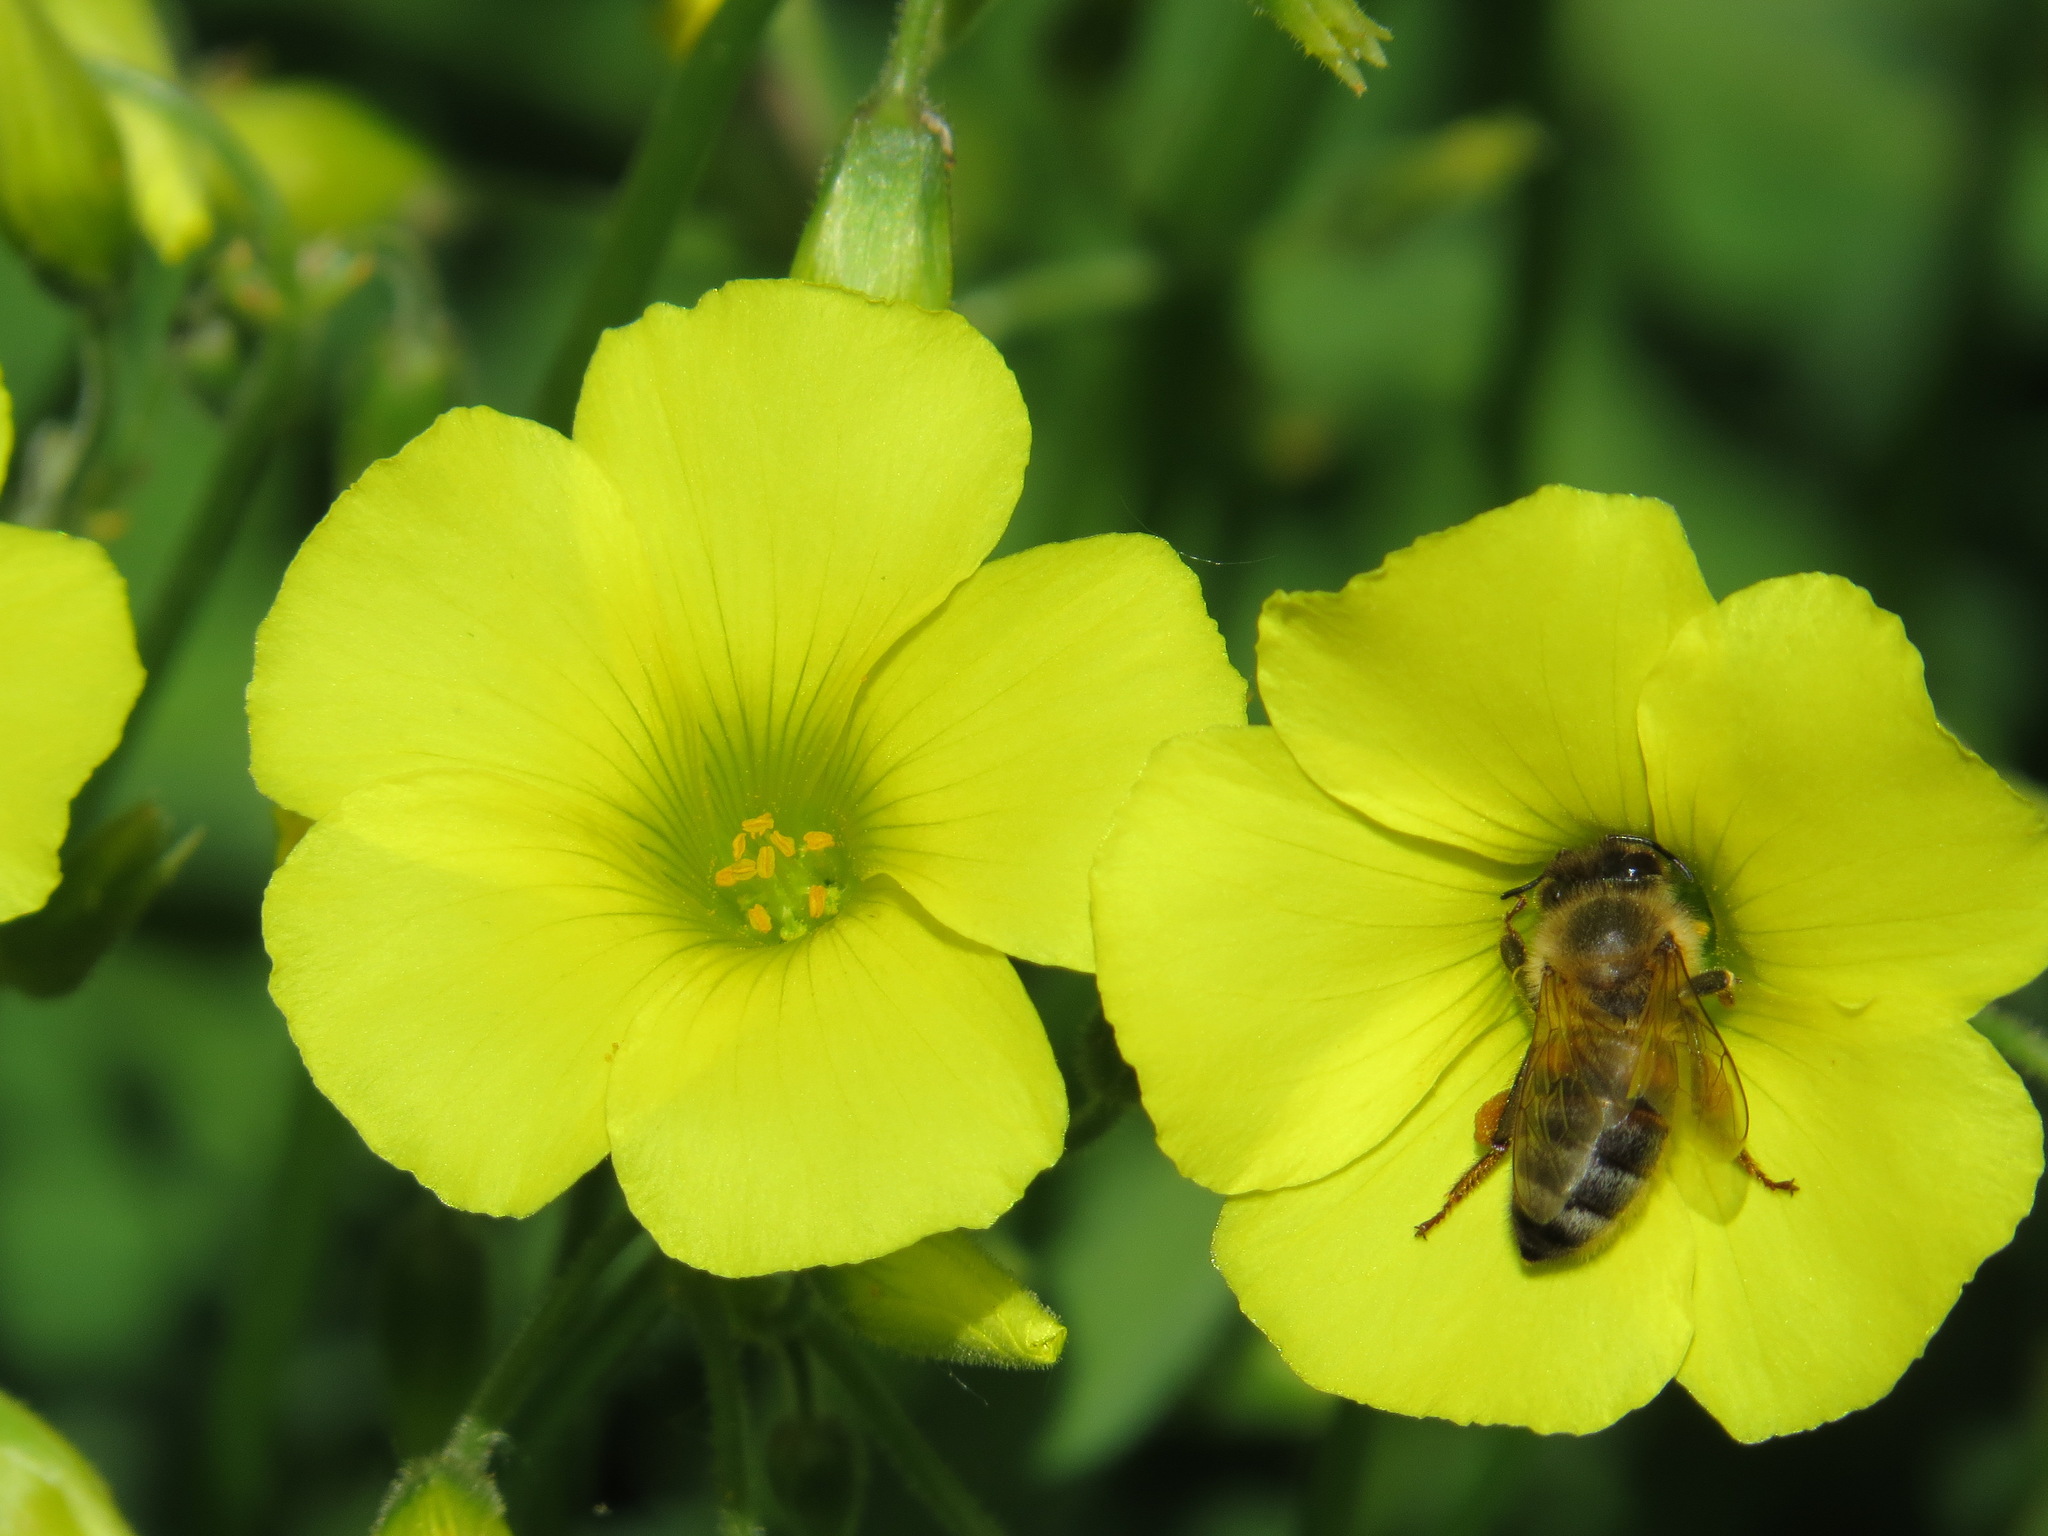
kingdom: Animalia
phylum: Arthropoda
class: Insecta
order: Hymenoptera
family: Apidae
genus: Apis
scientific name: Apis mellifera
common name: Honey bee
